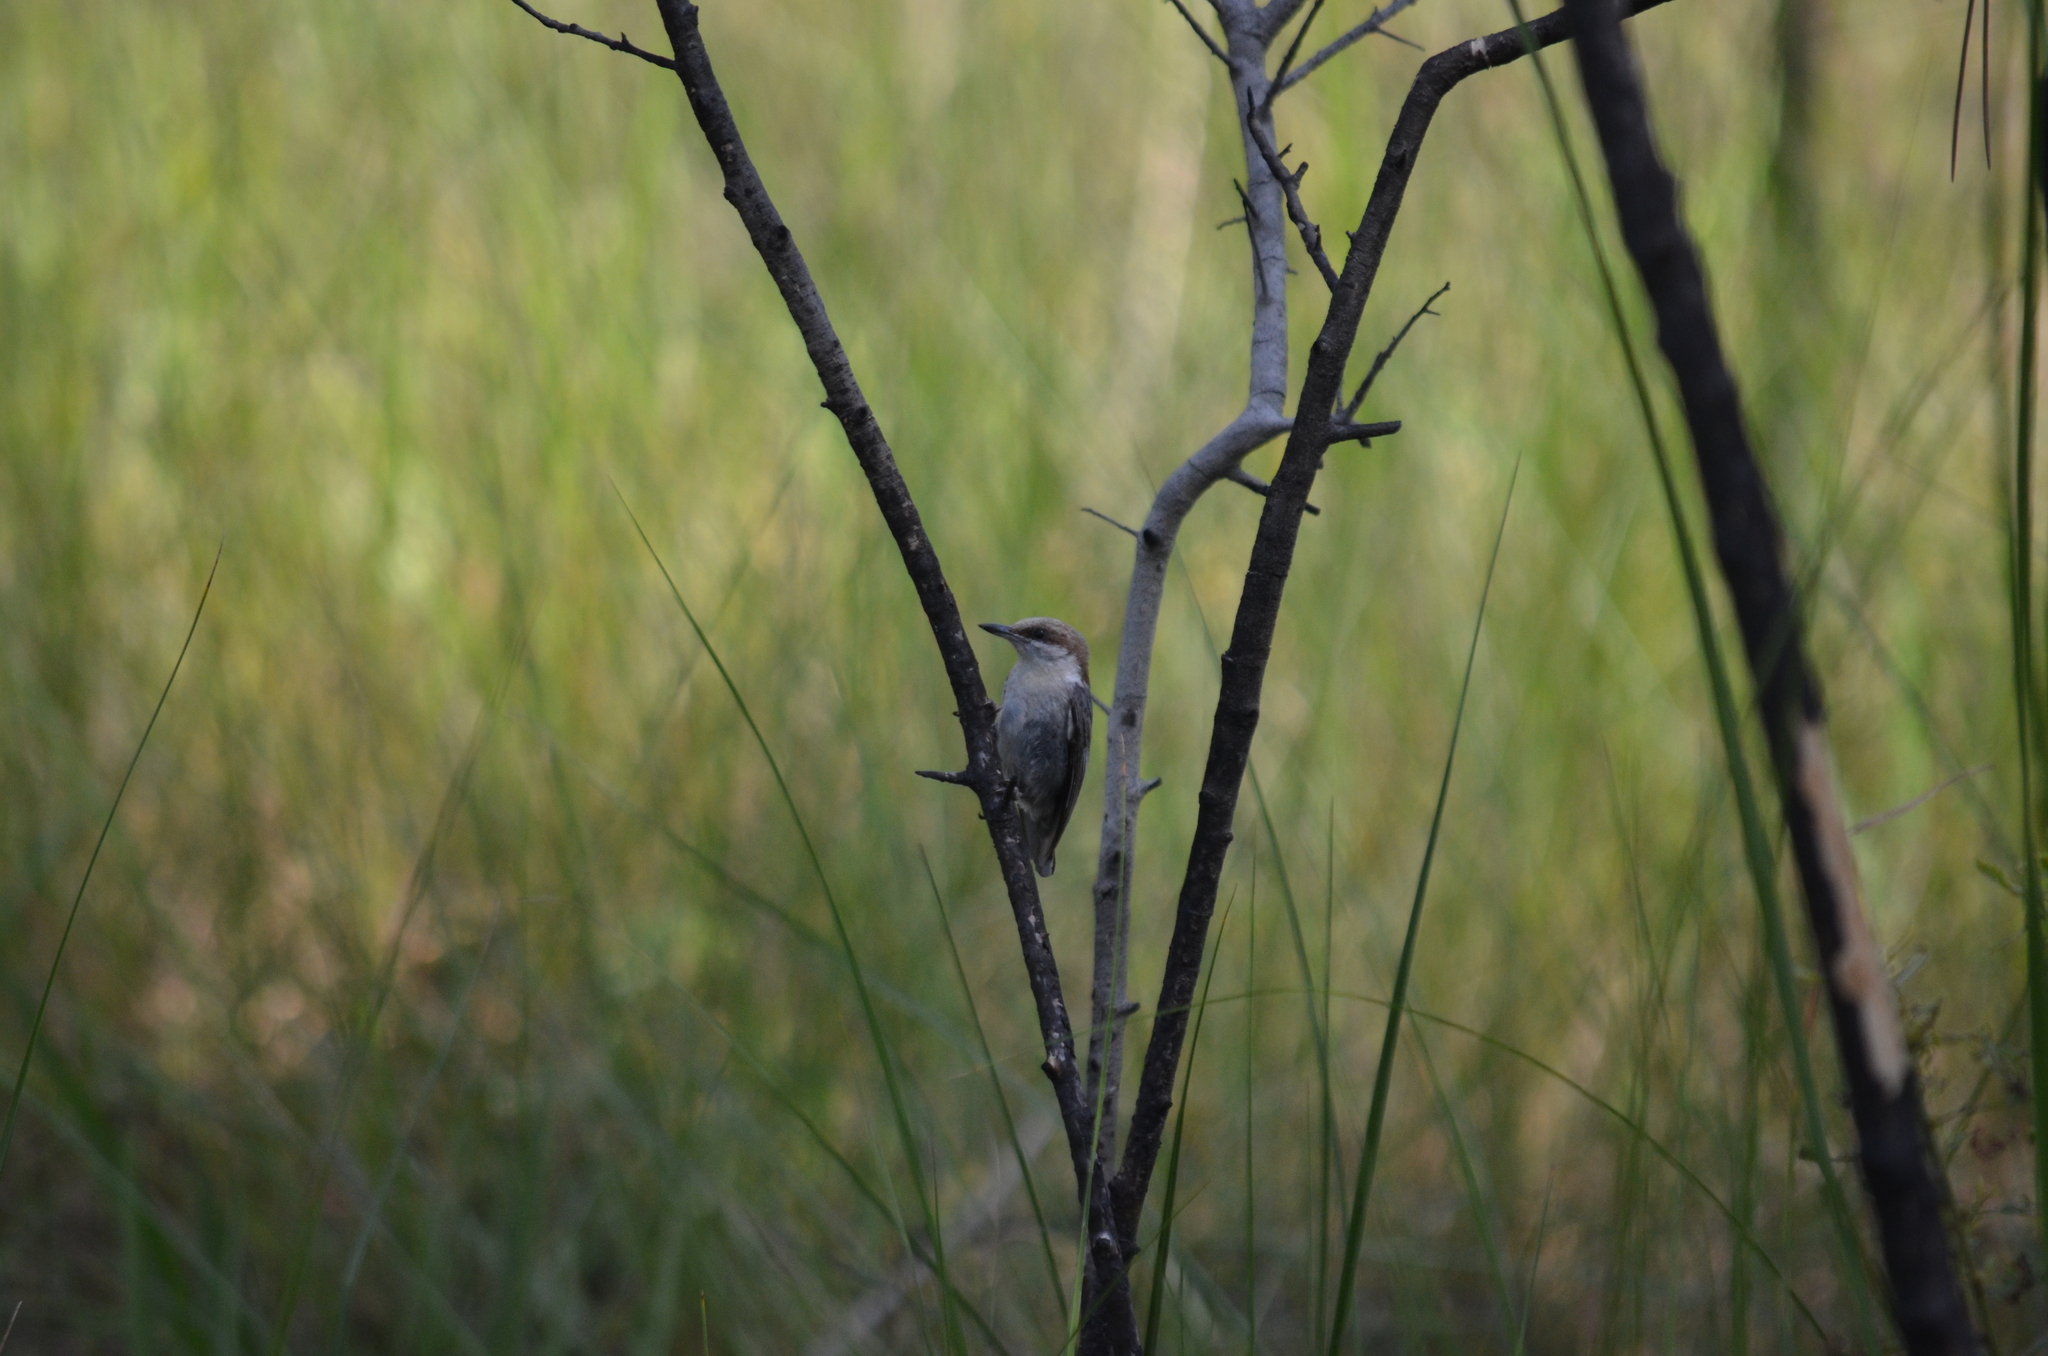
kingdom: Animalia
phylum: Chordata
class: Aves
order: Passeriformes
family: Sittidae
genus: Sitta
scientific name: Sitta pusilla
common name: Brown-headed nuthatch
